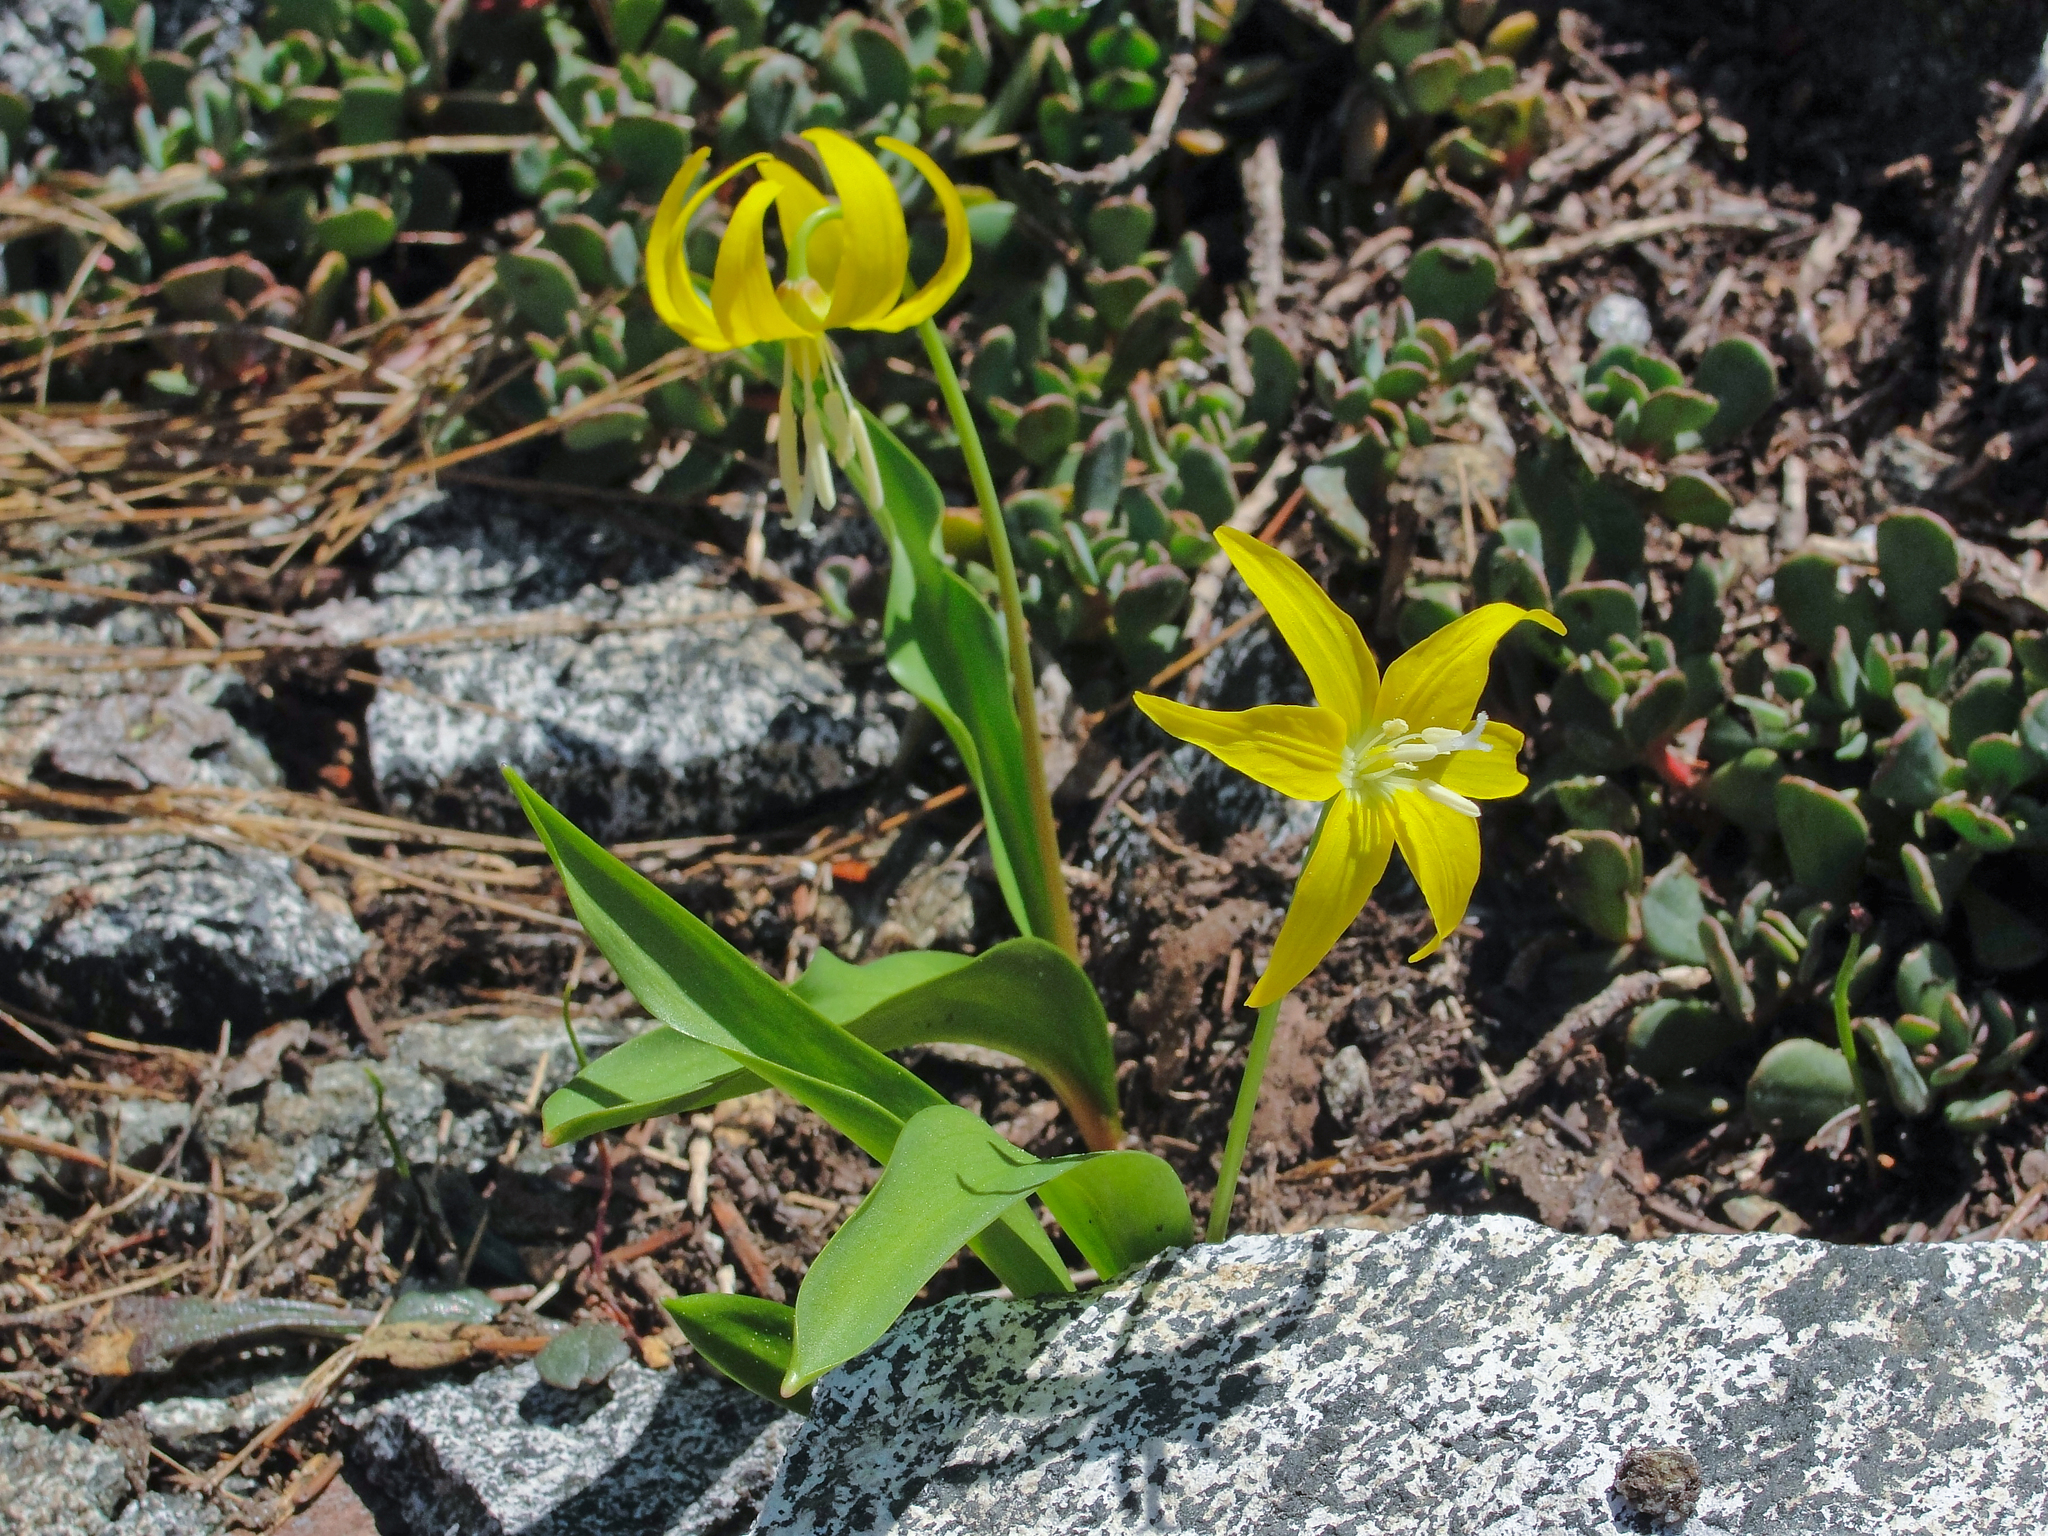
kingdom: Plantae
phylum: Tracheophyta
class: Liliopsida
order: Liliales
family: Liliaceae
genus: Erythronium
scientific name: Erythronium grandiflorum
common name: Avalanche-lily
